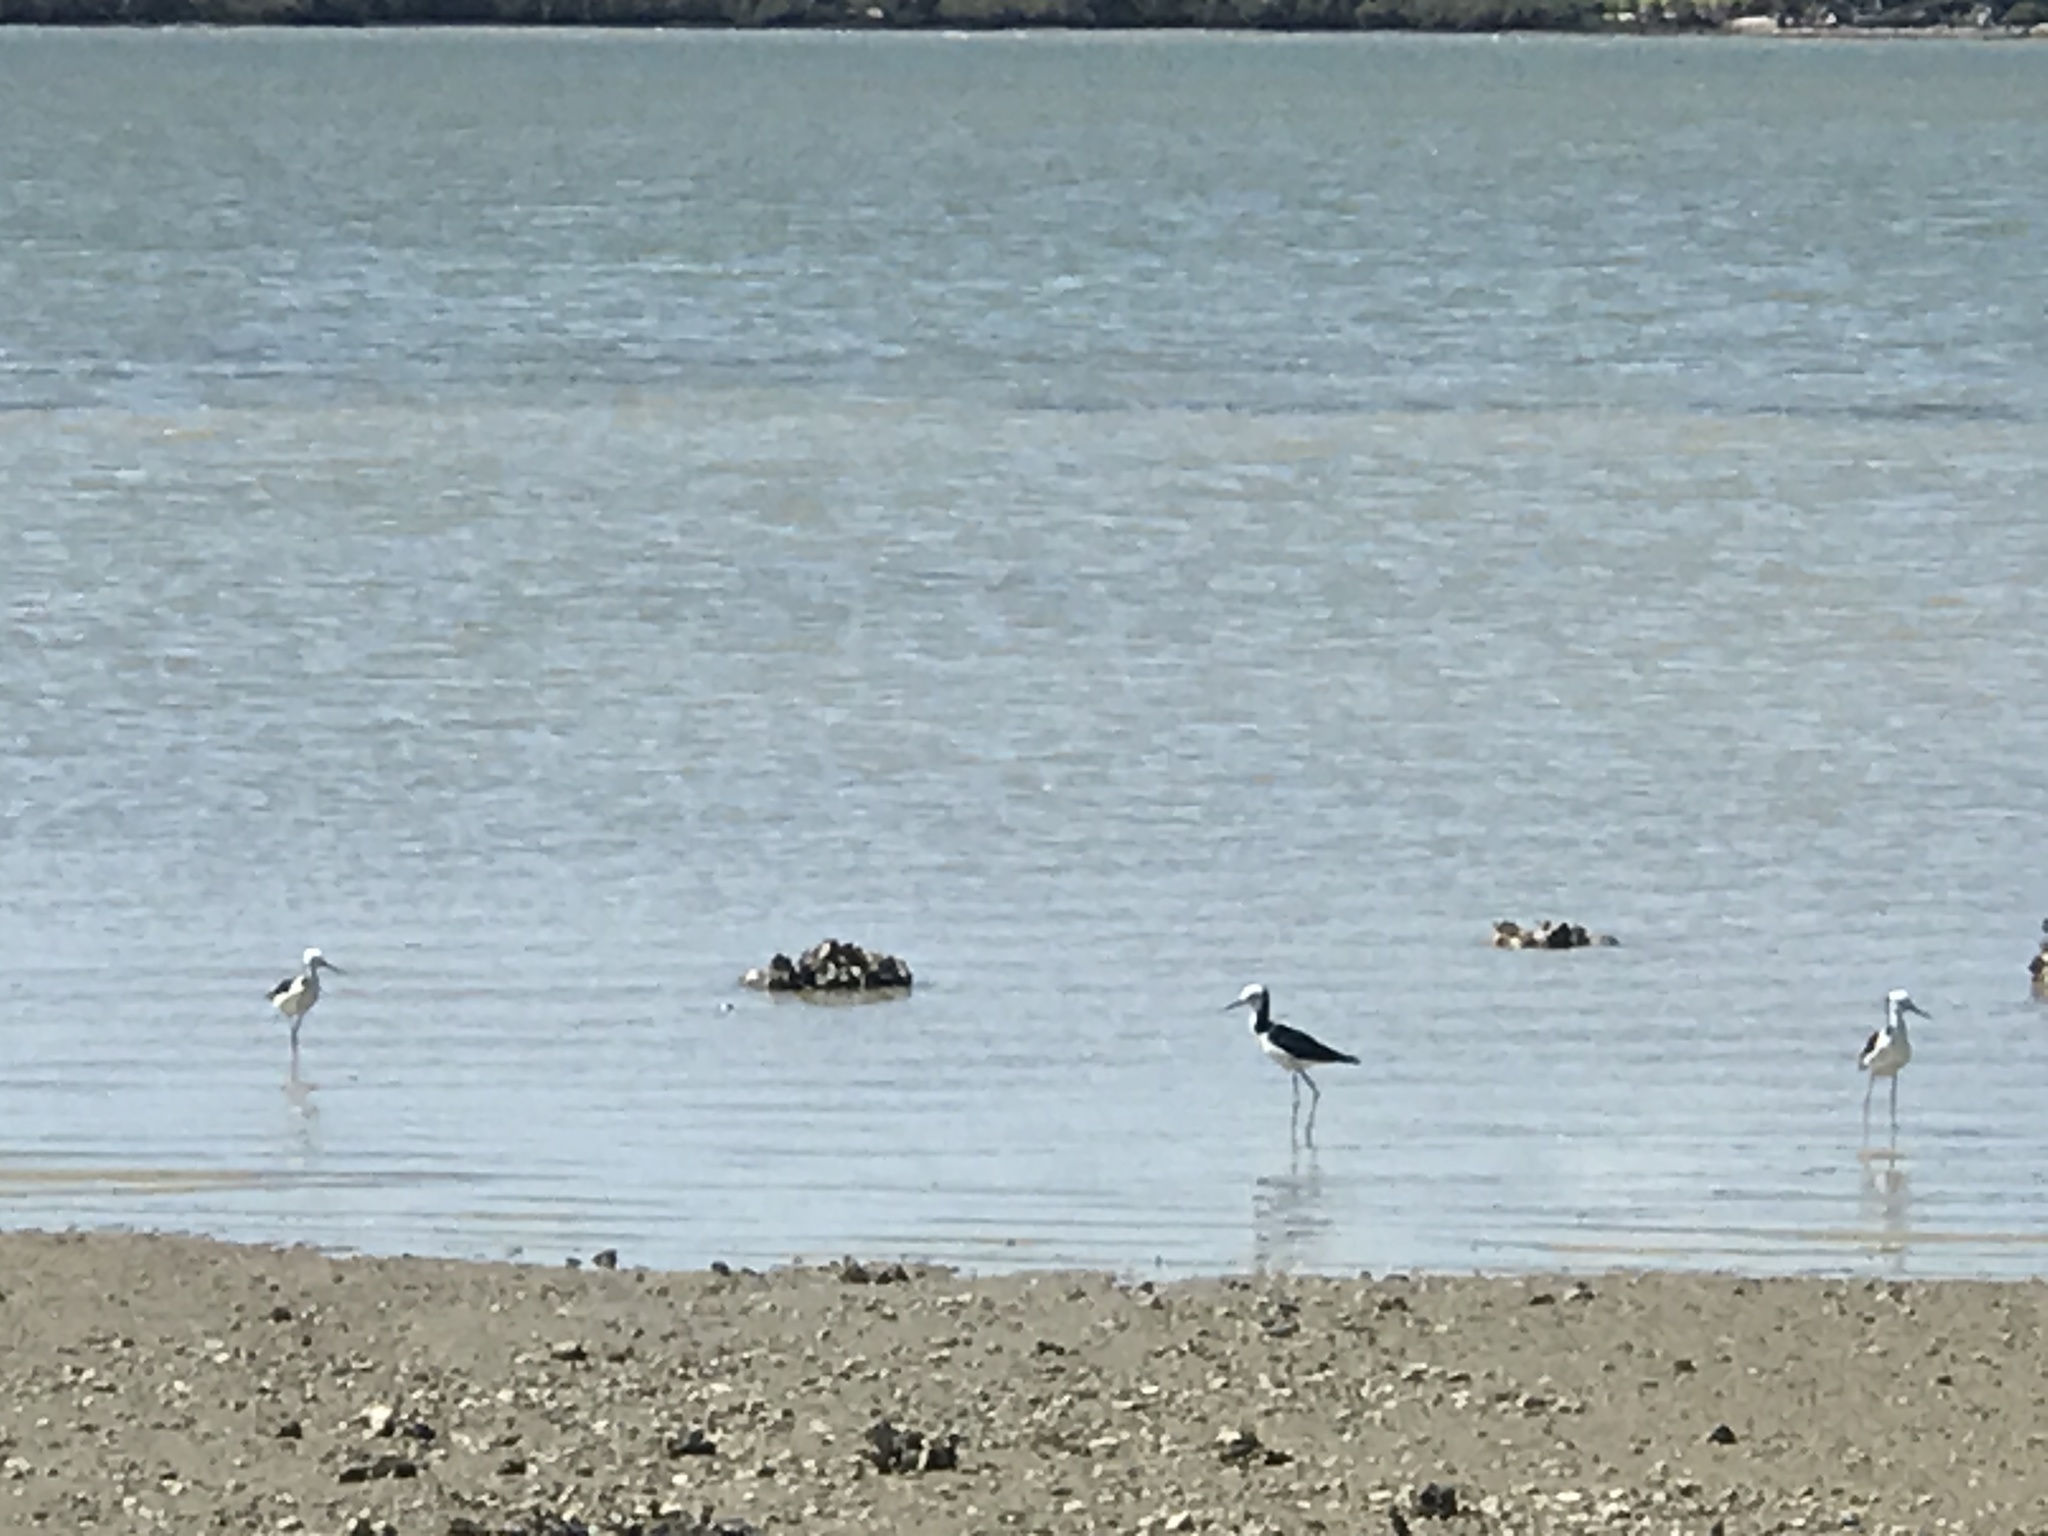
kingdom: Animalia
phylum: Chordata
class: Aves
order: Charadriiformes
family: Recurvirostridae
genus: Himantopus
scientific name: Himantopus leucocephalus
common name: White-headed stilt
